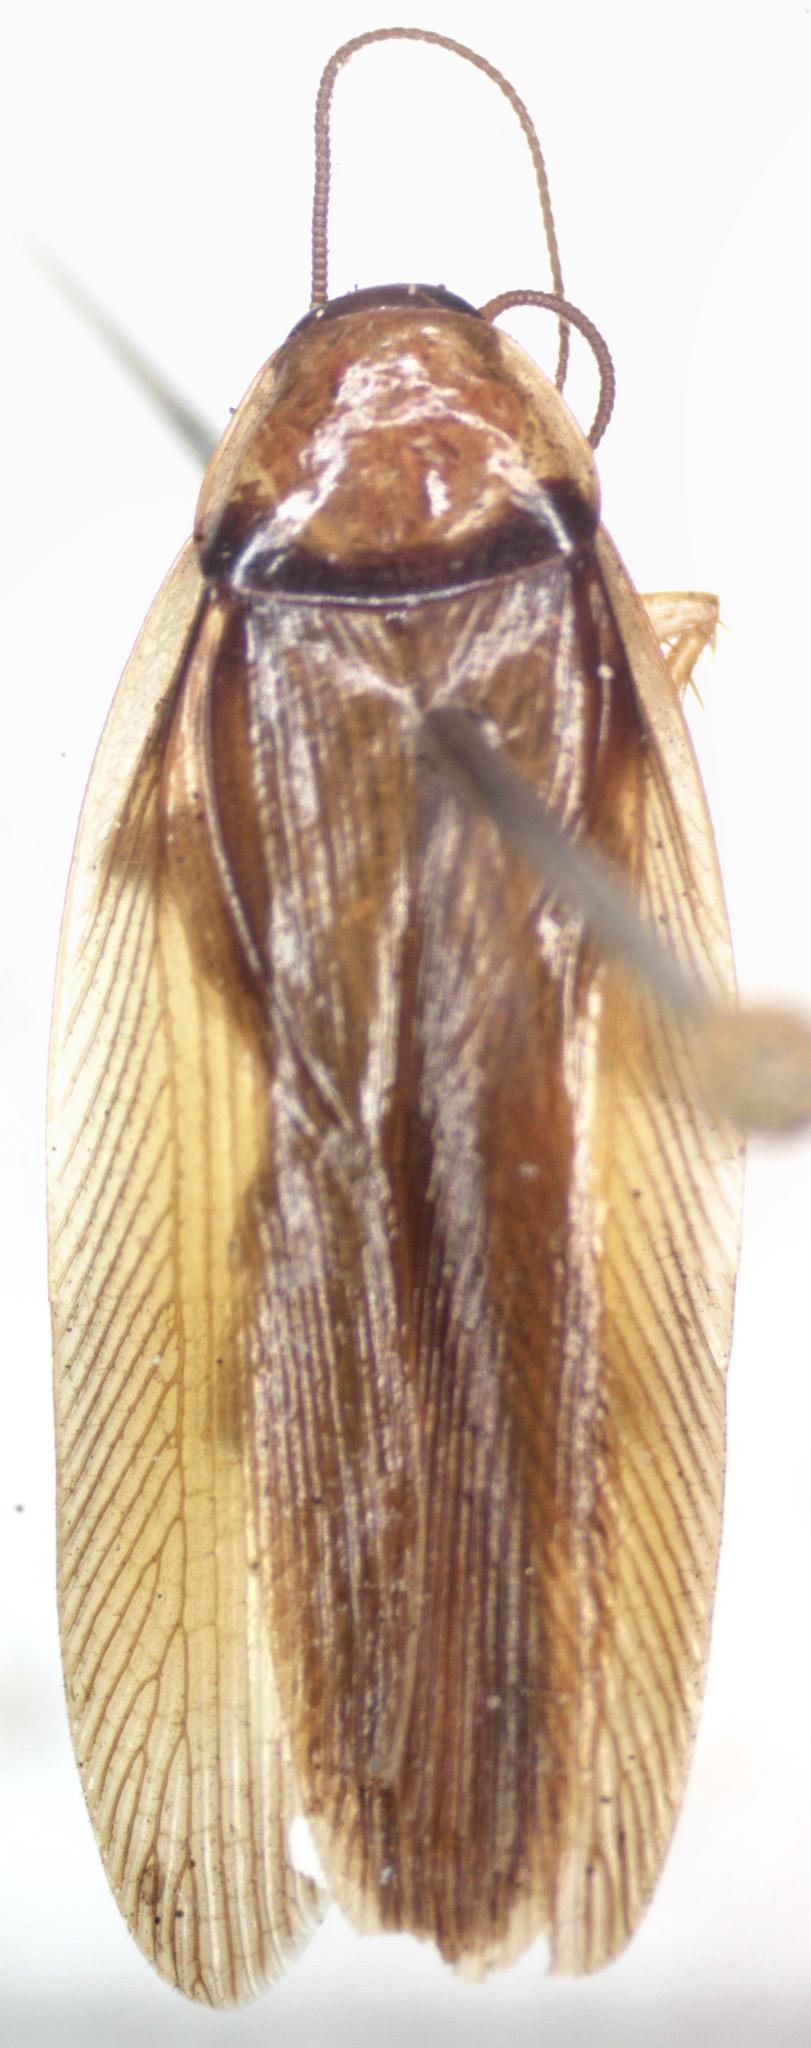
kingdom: Animalia
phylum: Arthropoda
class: Insecta
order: Blattodea
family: Ectobiidae
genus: Chromatonotus
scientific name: Chromatonotus quarequae
